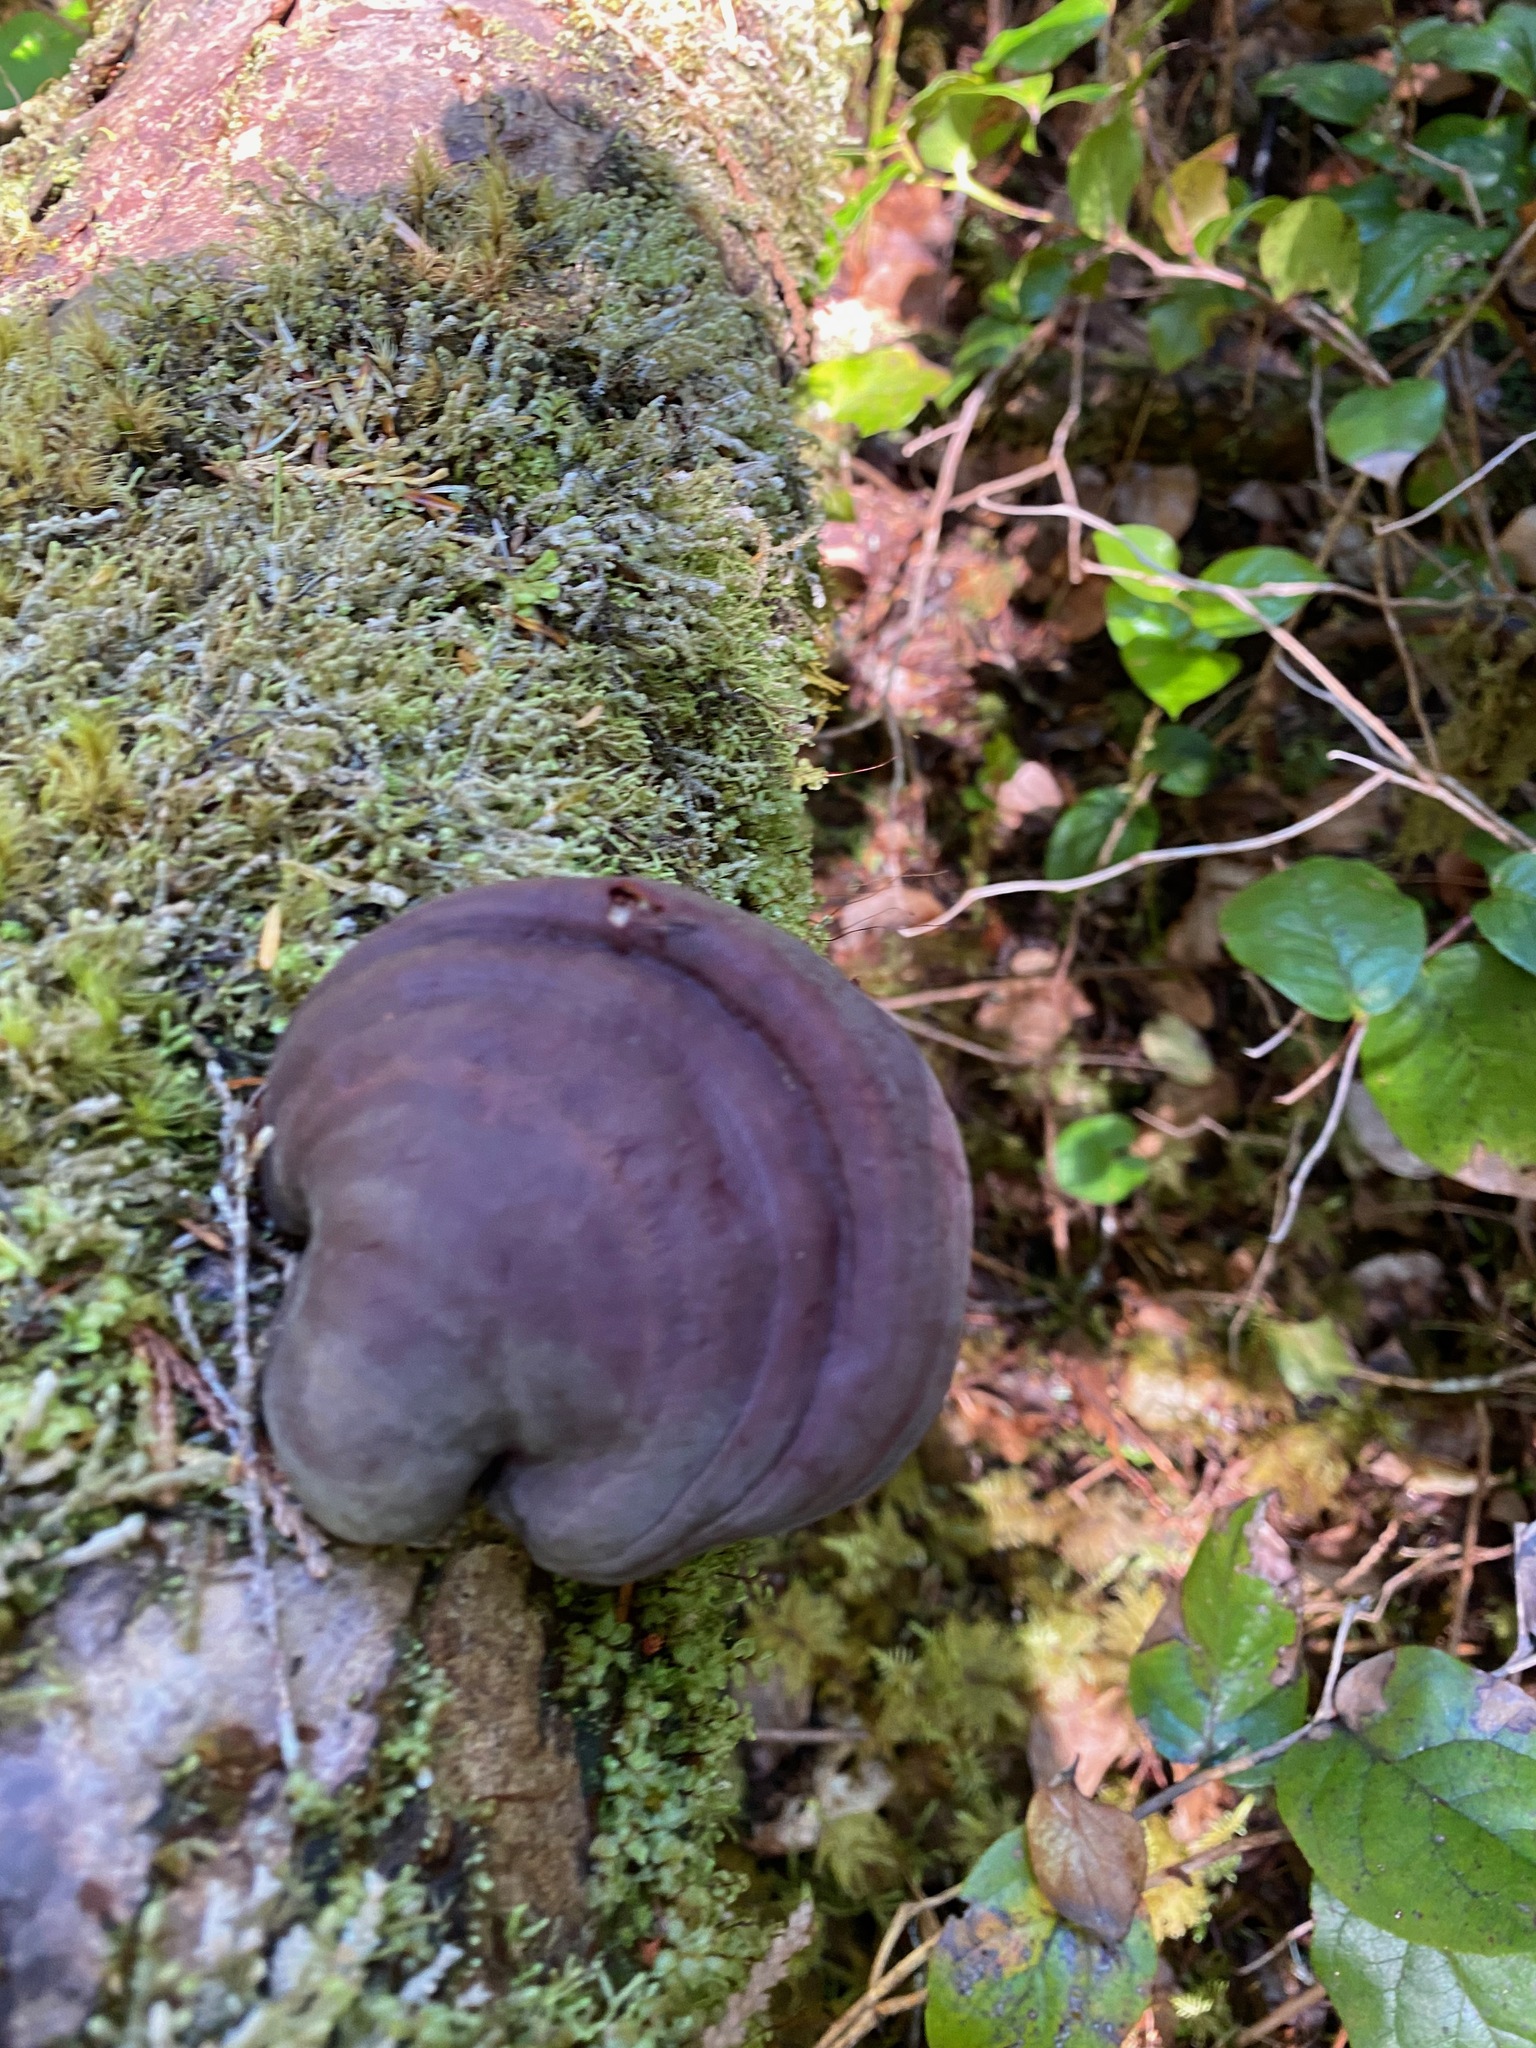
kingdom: Fungi
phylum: Basidiomycota
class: Agaricomycetes
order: Polyporales
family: Polyporaceae
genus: Ganoderma
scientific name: Ganoderma oregonense
